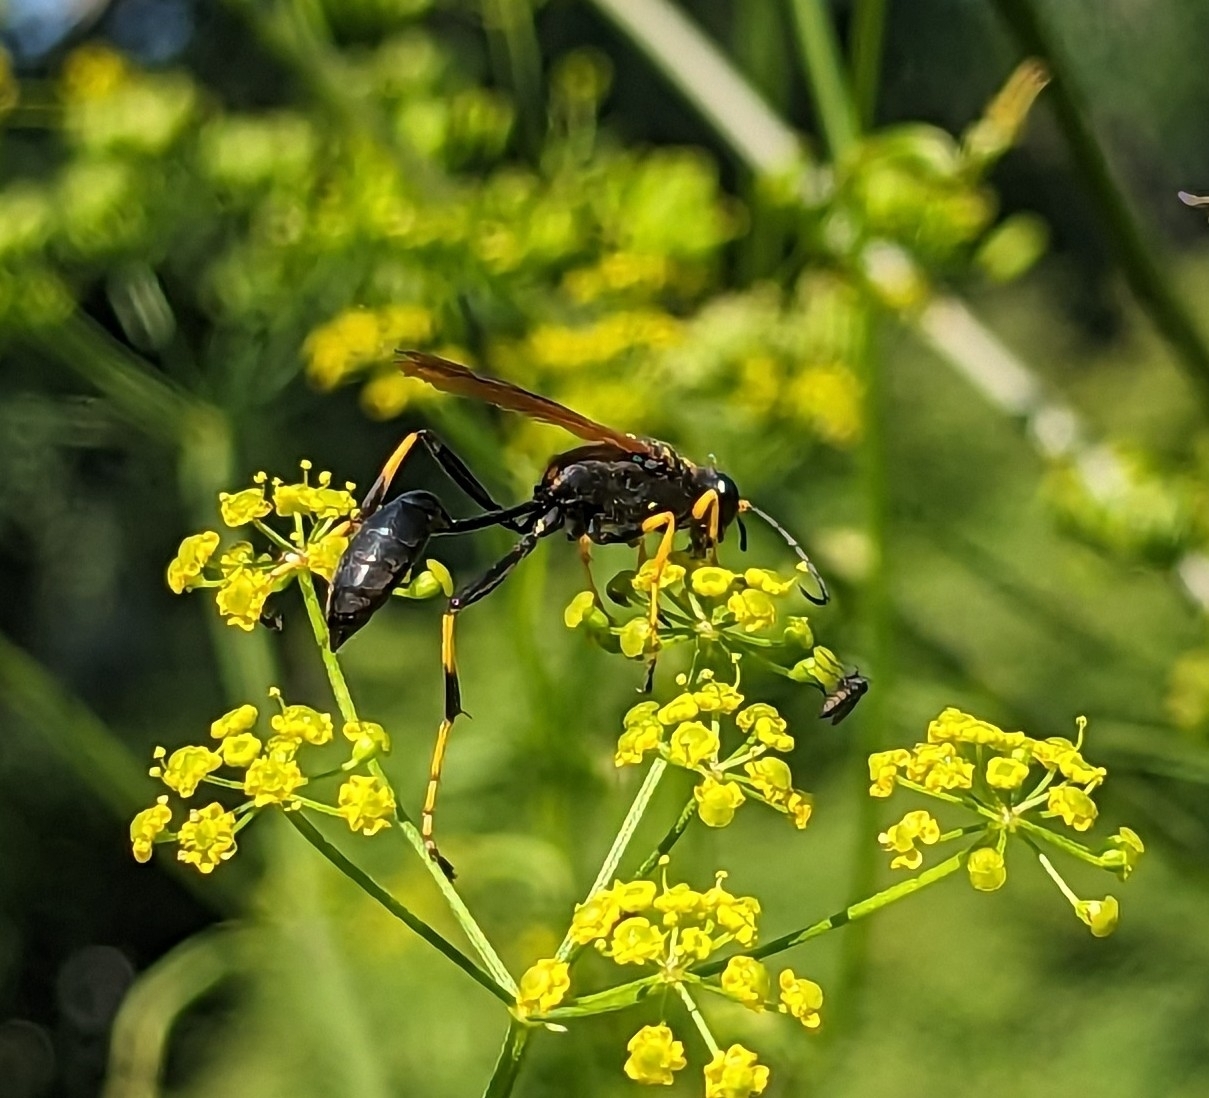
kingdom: Animalia
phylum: Arthropoda
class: Insecta
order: Hymenoptera
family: Sphecidae
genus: Sceliphron
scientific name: Sceliphron caementarium
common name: Mud dauber
